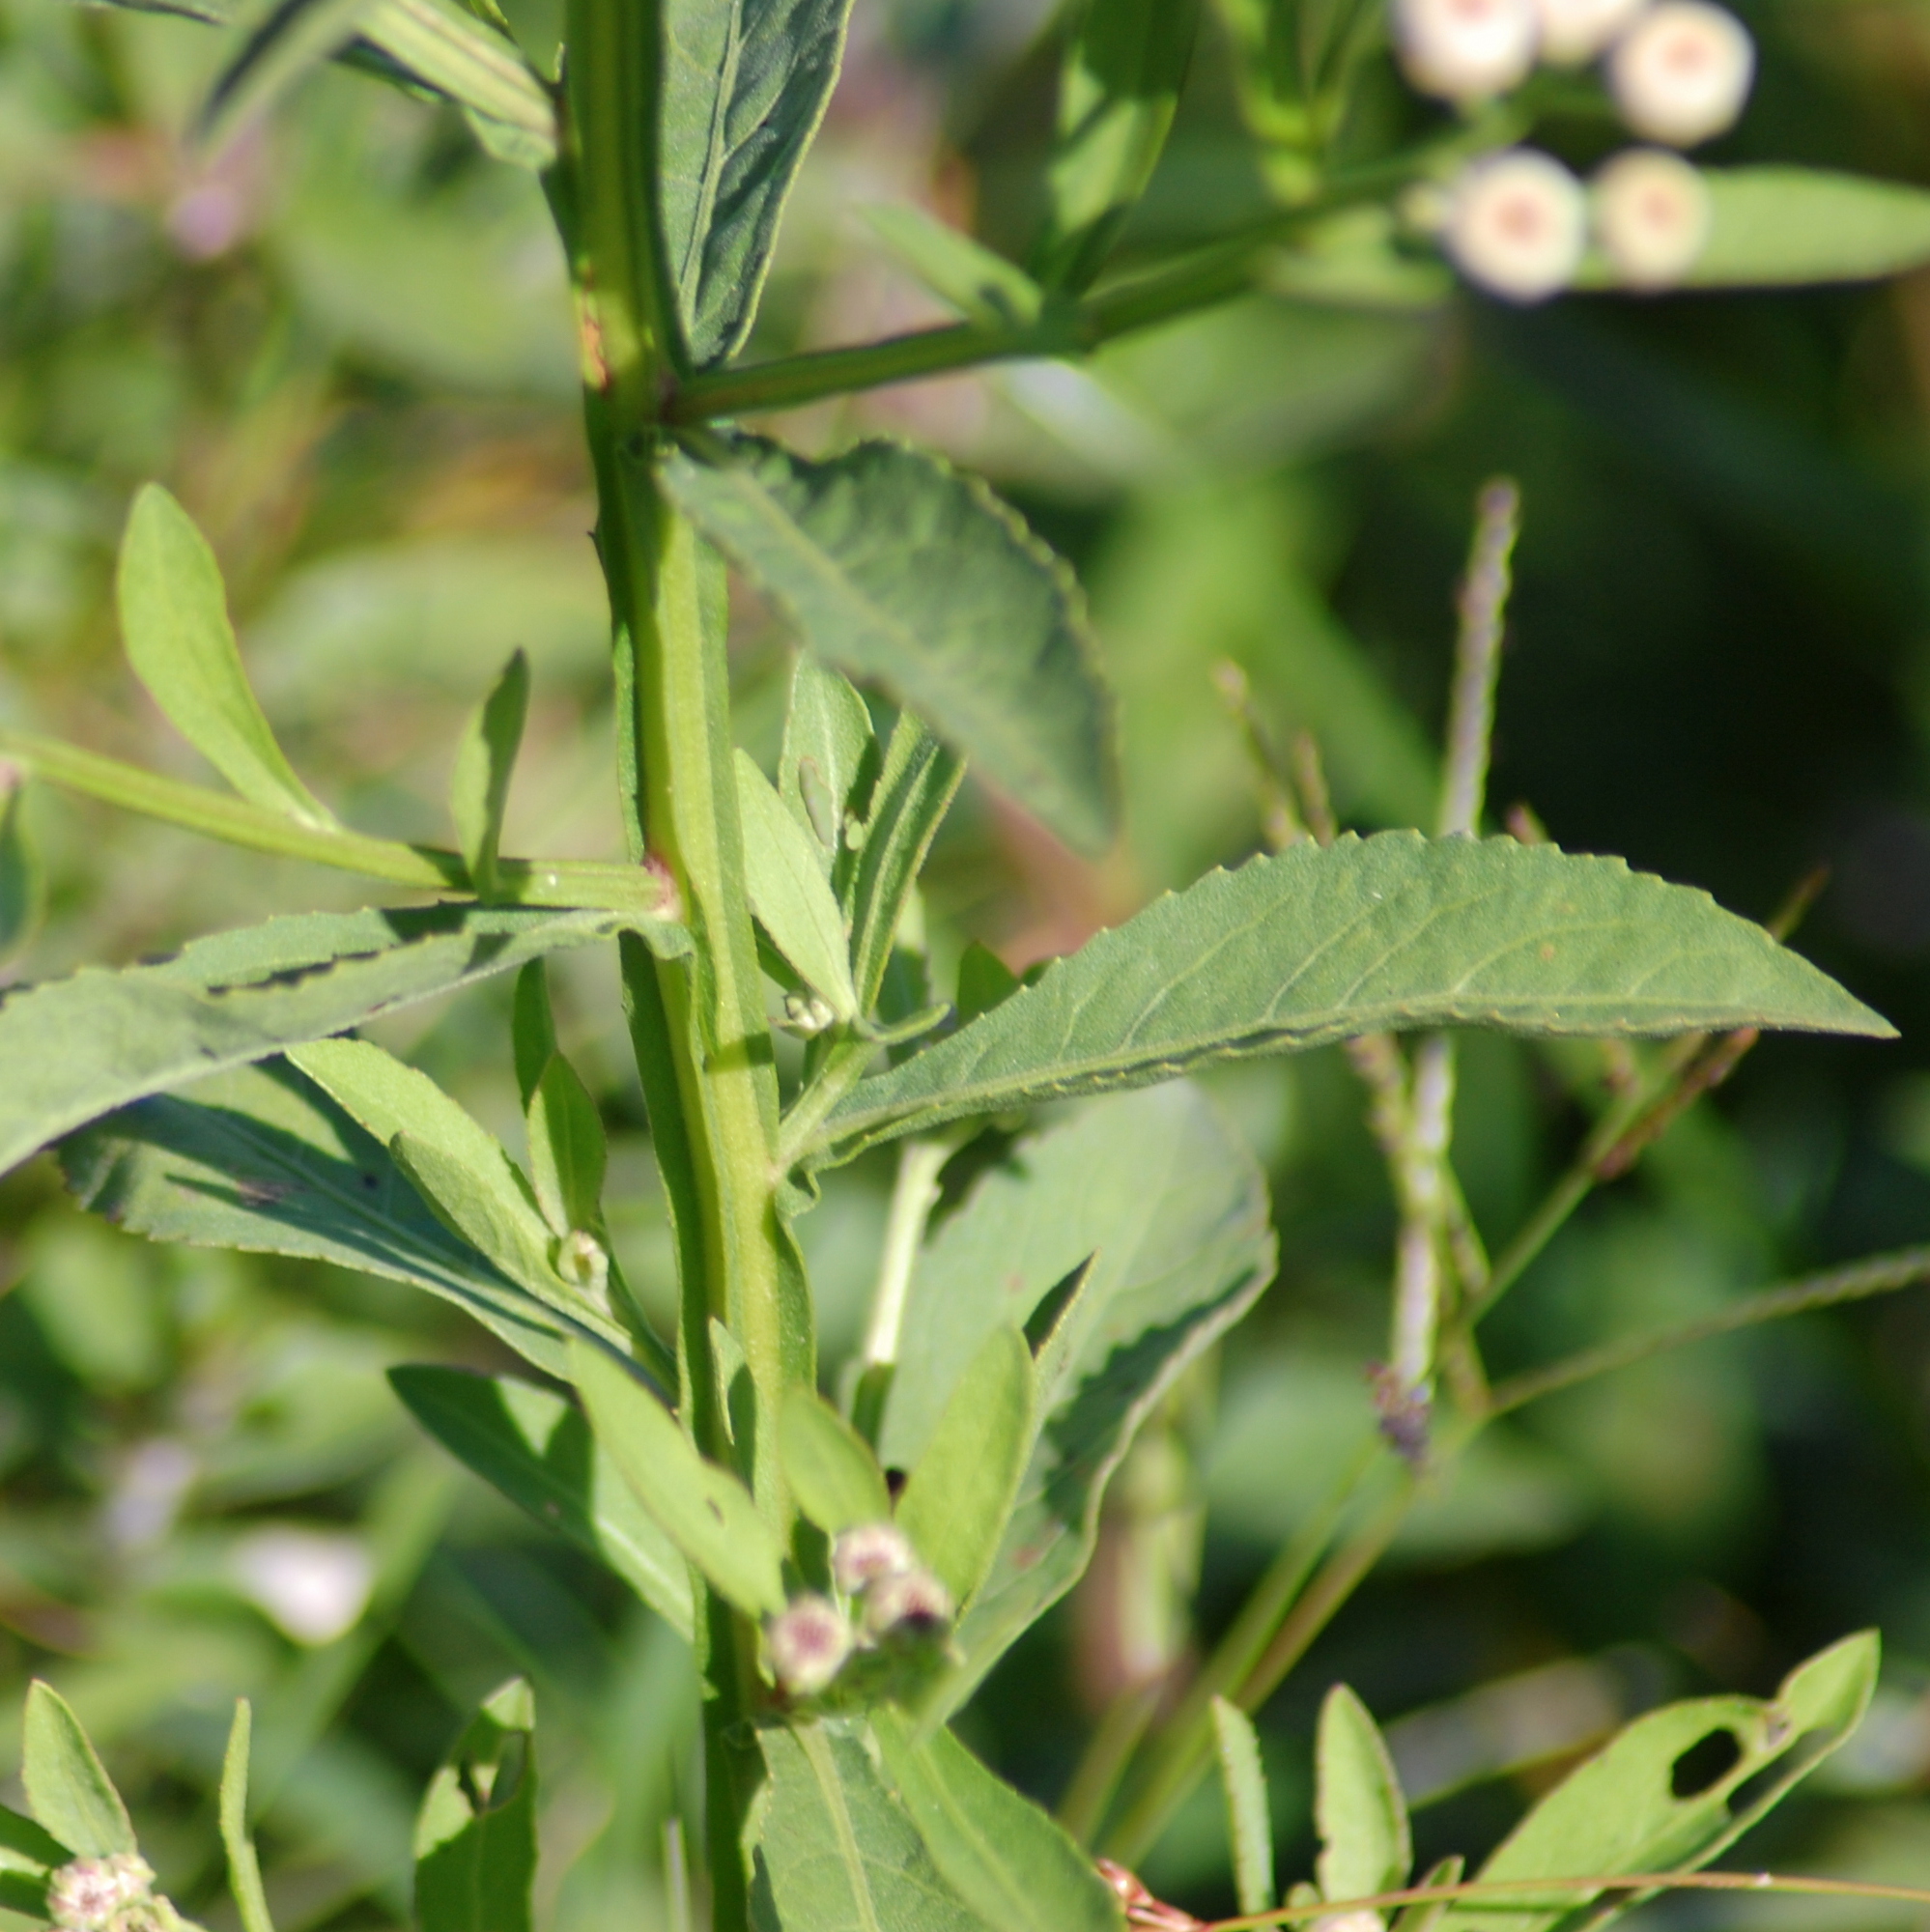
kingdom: Plantae
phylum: Tracheophyta
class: Magnoliopsida
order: Asterales
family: Asteraceae
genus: Pluchea
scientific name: Pluchea sagittalis
